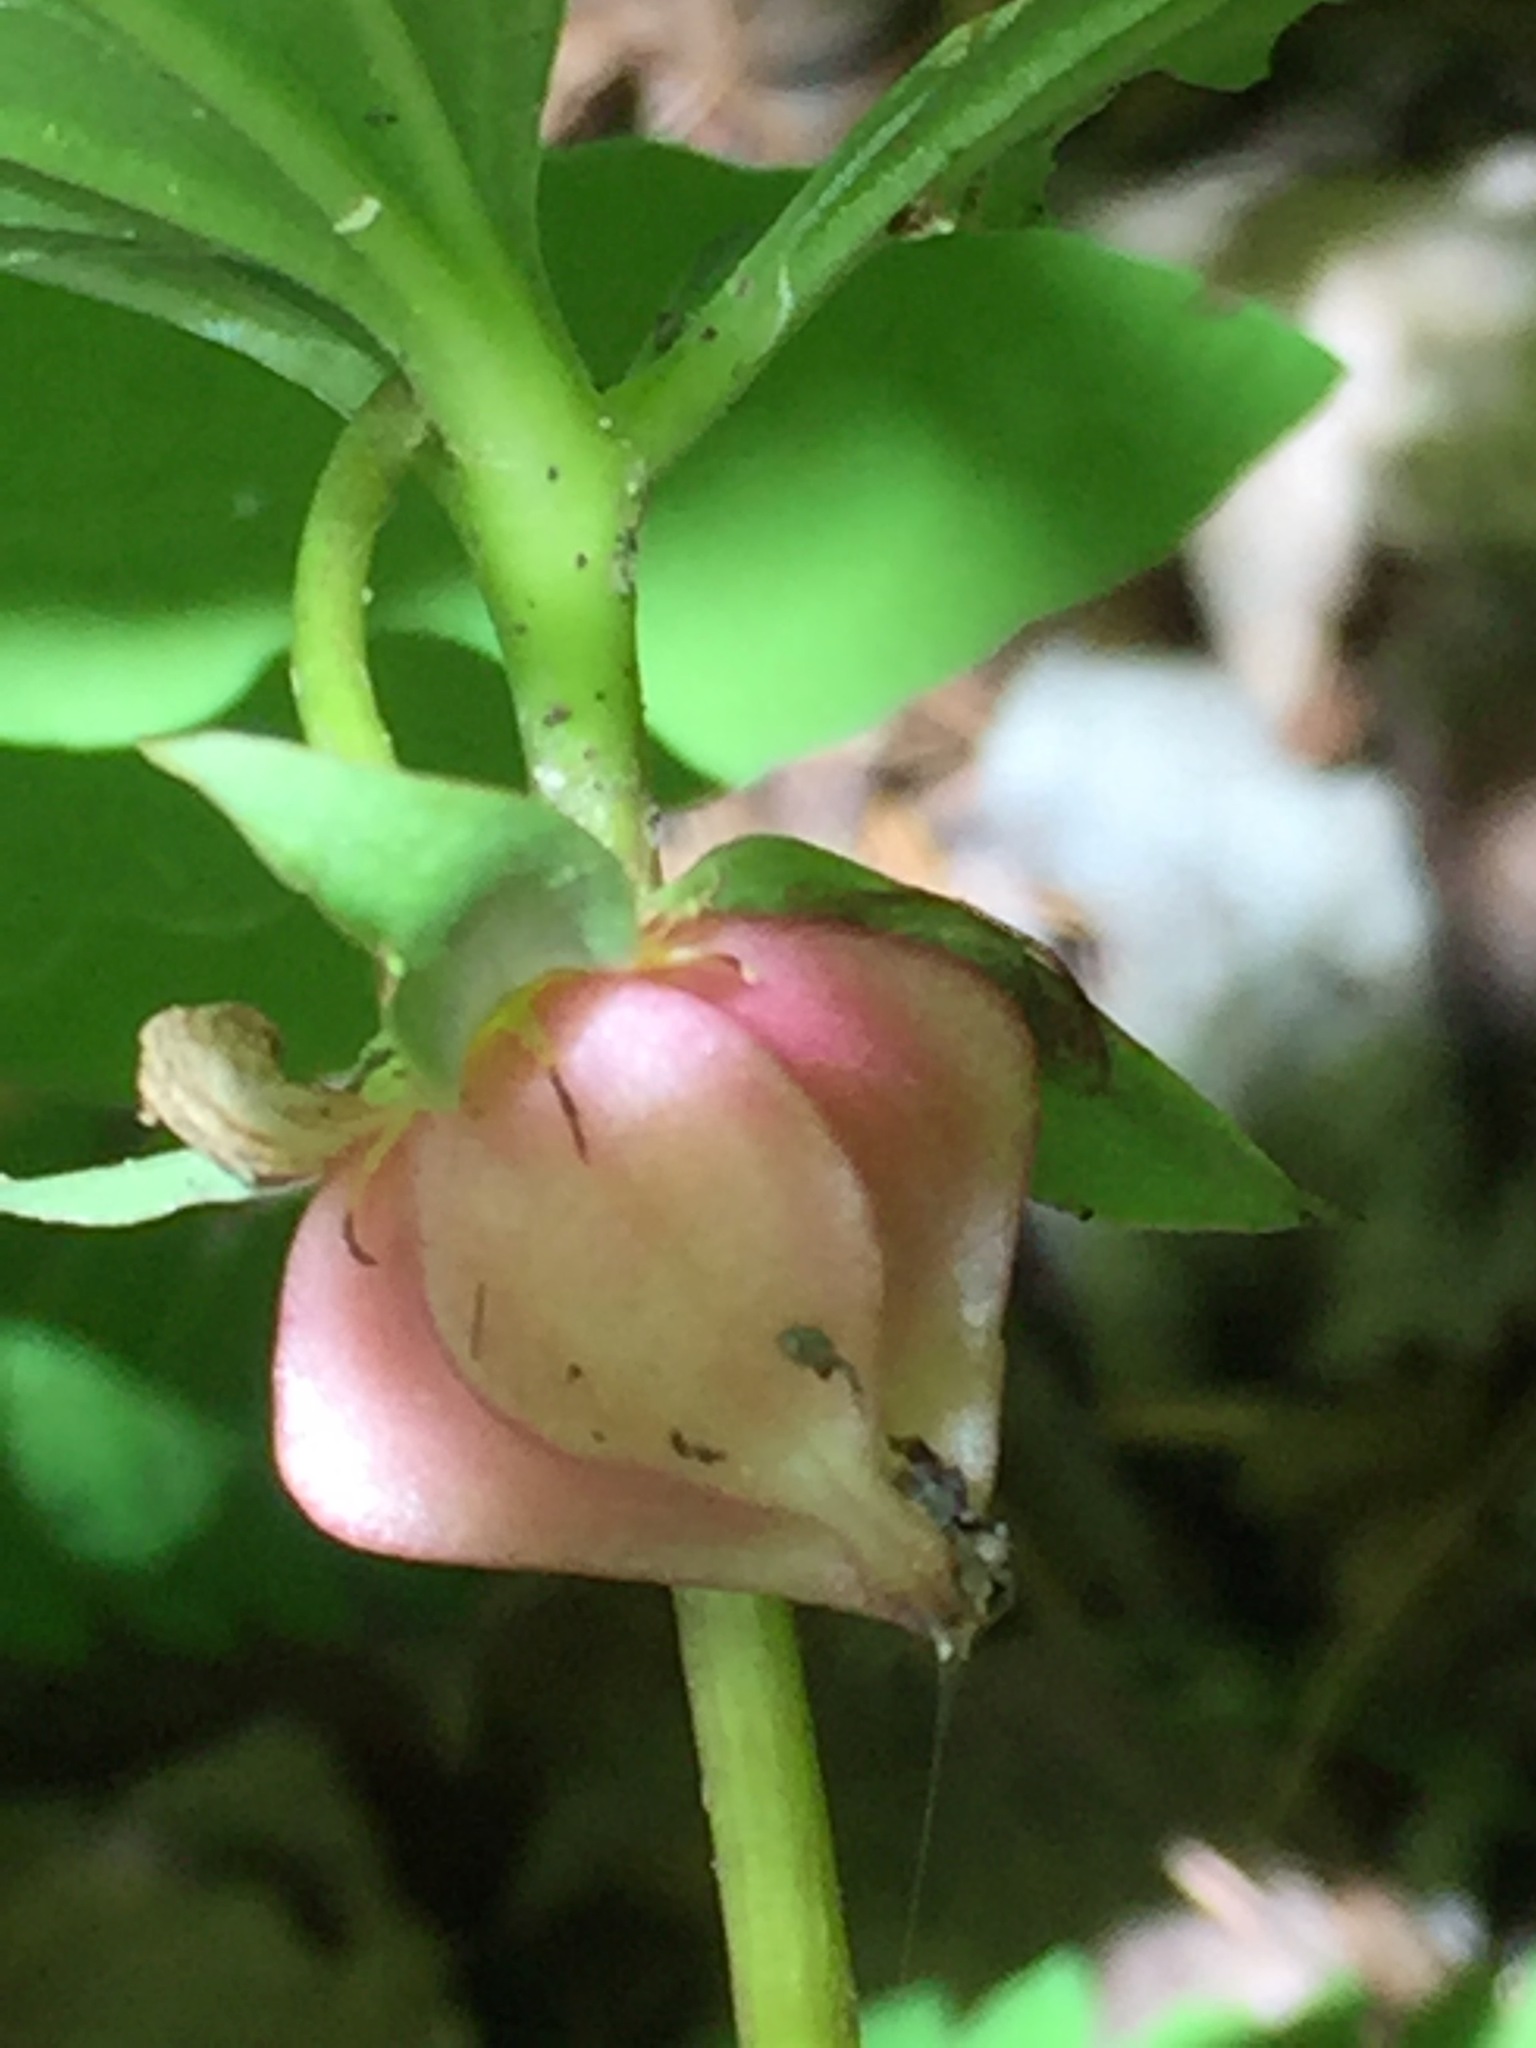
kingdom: Plantae
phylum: Tracheophyta
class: Liliopsida
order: Liliales
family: Melanthiaceae
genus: Trillium
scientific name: Trillium cernuum
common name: Nodding trillium
